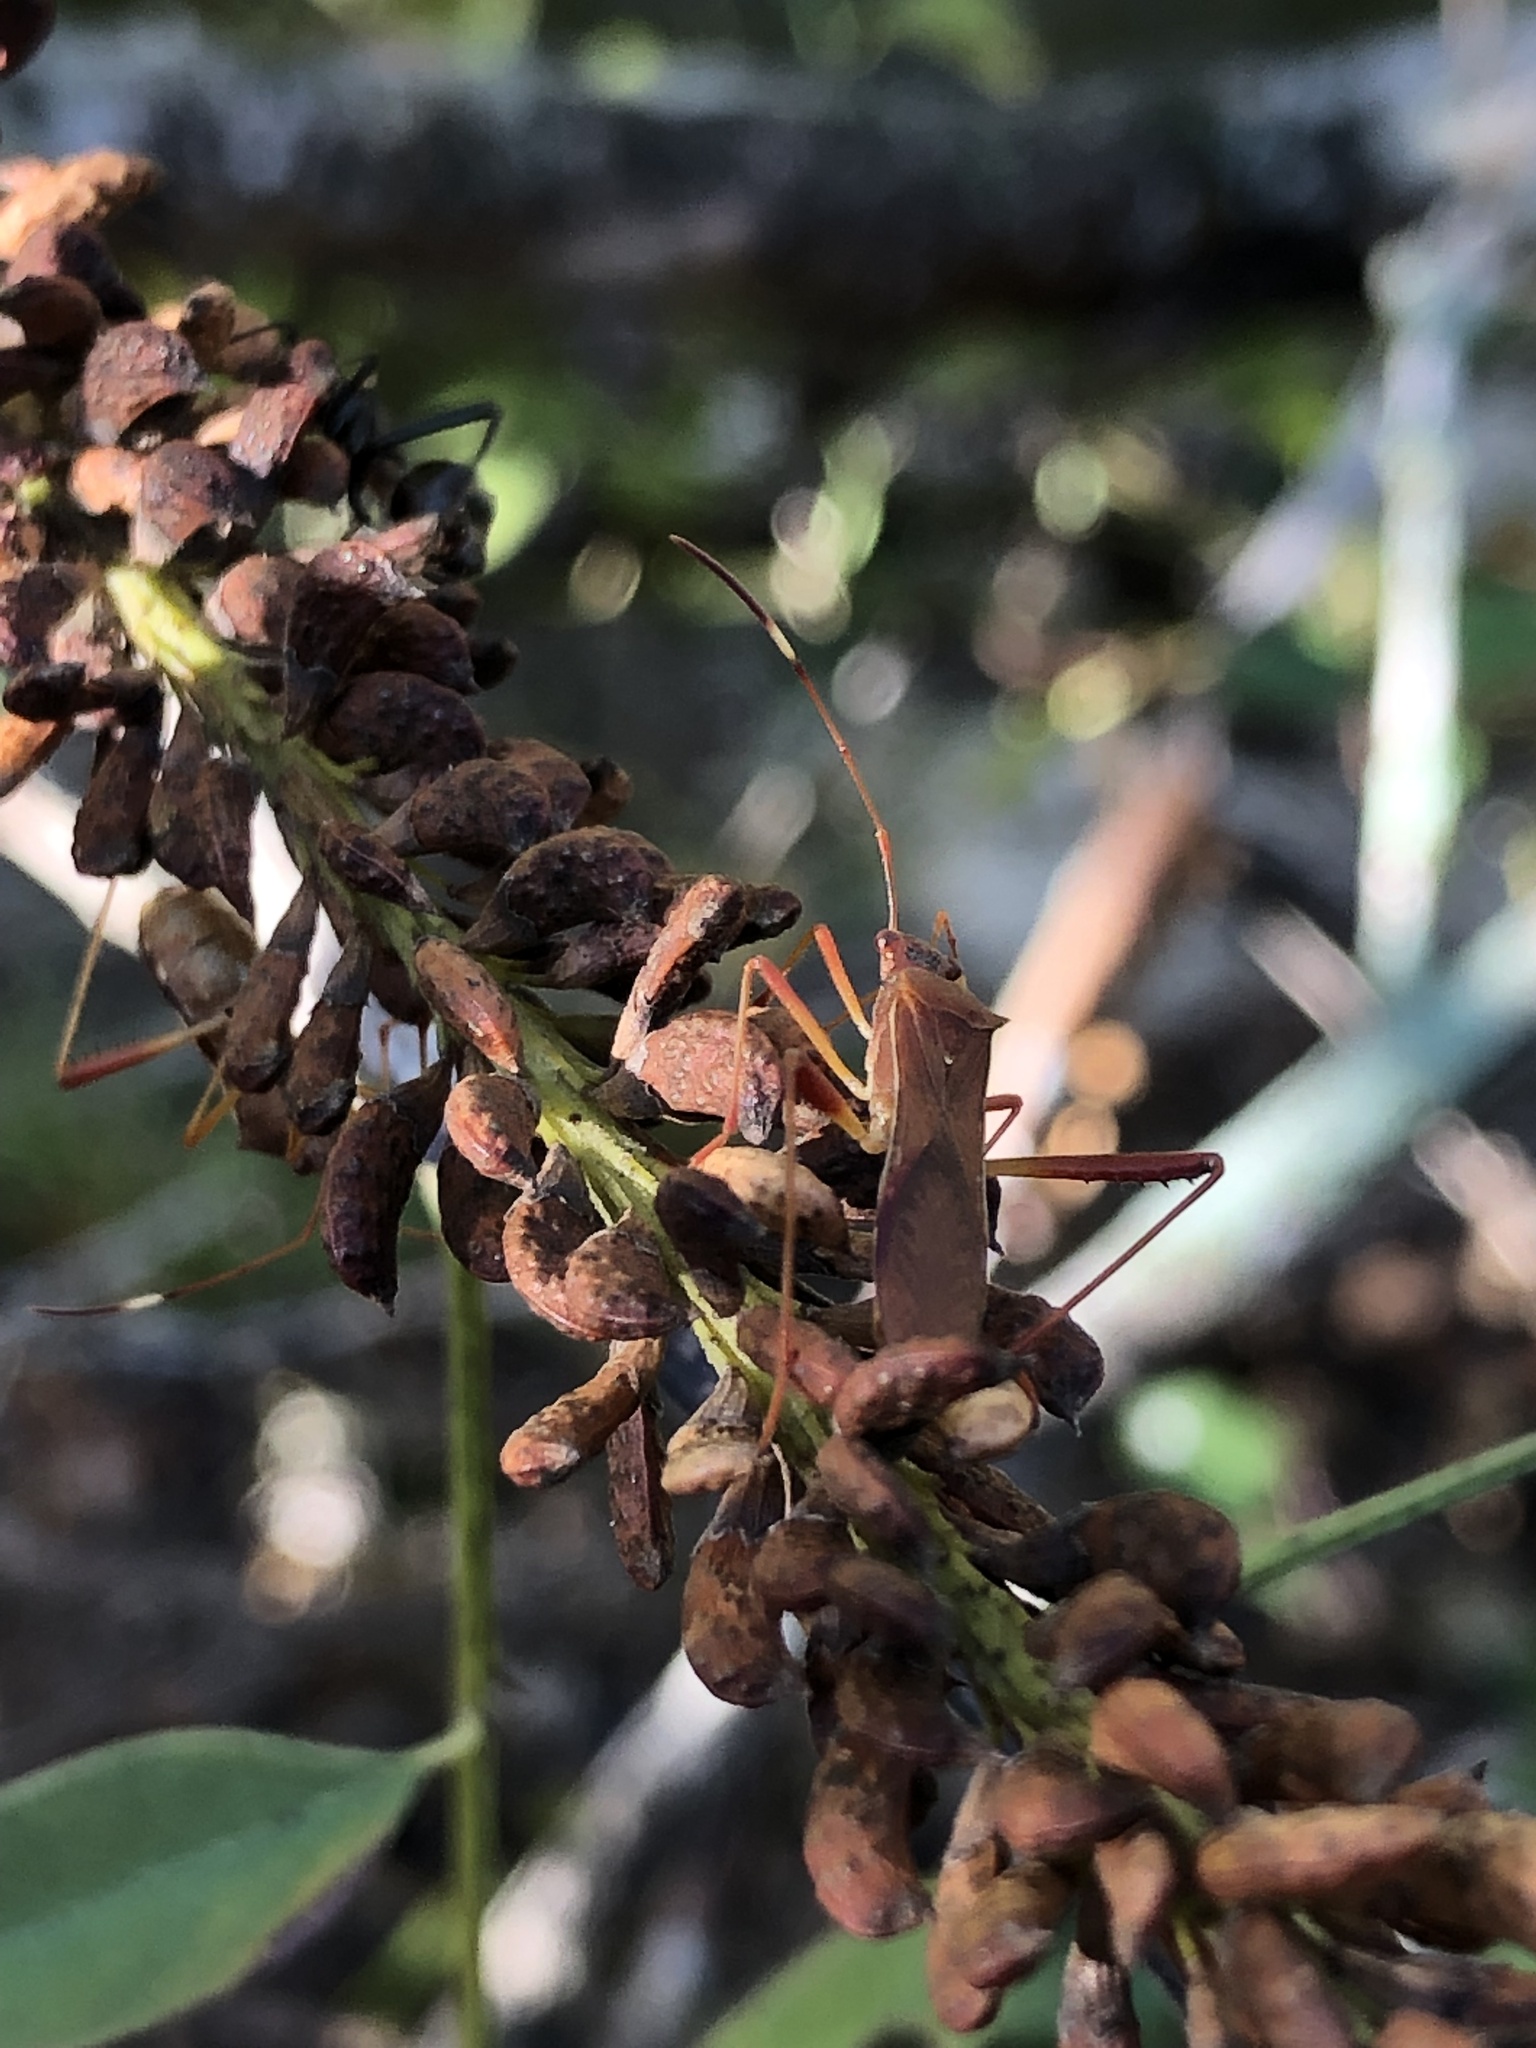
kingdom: Animalia
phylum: Arthropoda
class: Insecta
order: Hemiptera
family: Alydidae
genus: Megalotomus
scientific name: Megalotomus quinquespinosus
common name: Lupine bug
